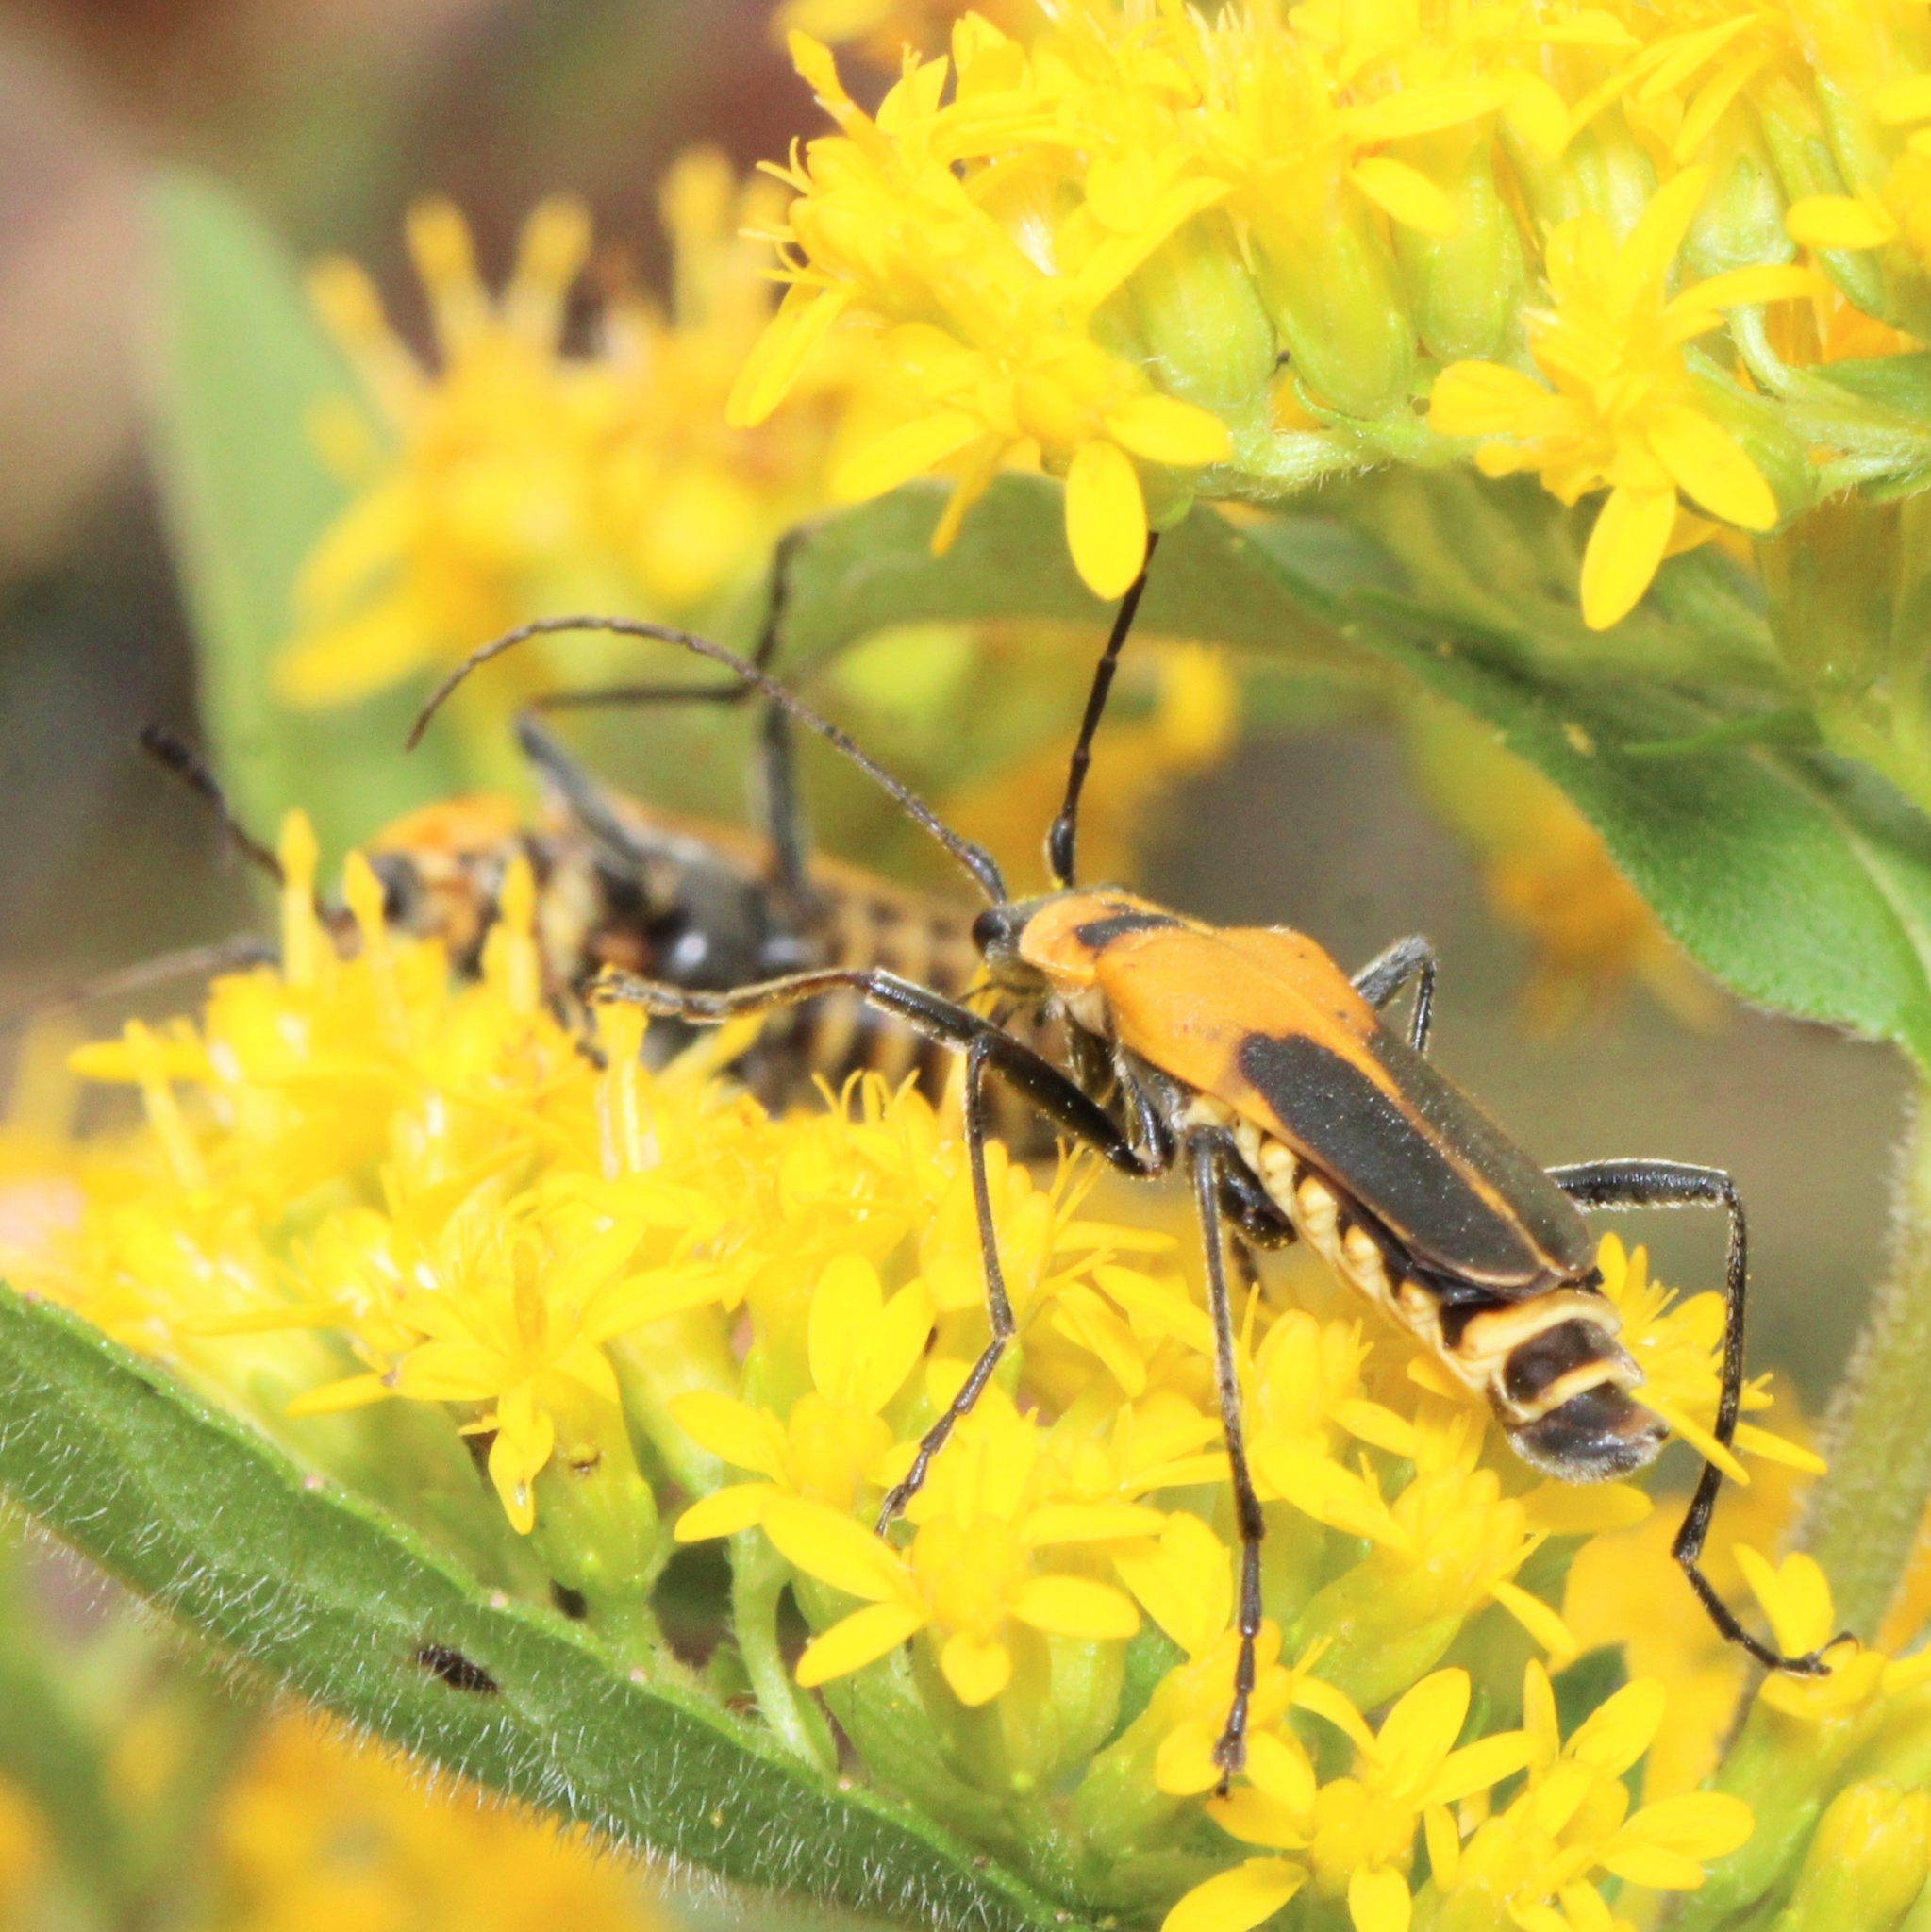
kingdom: Animalia
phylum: Arthropoda
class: Insecta
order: Coleoptera
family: Cantharidae
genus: Chauliognathus
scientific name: Chauliognathus pensylvanicus
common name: Goldenrod soldier beetle
